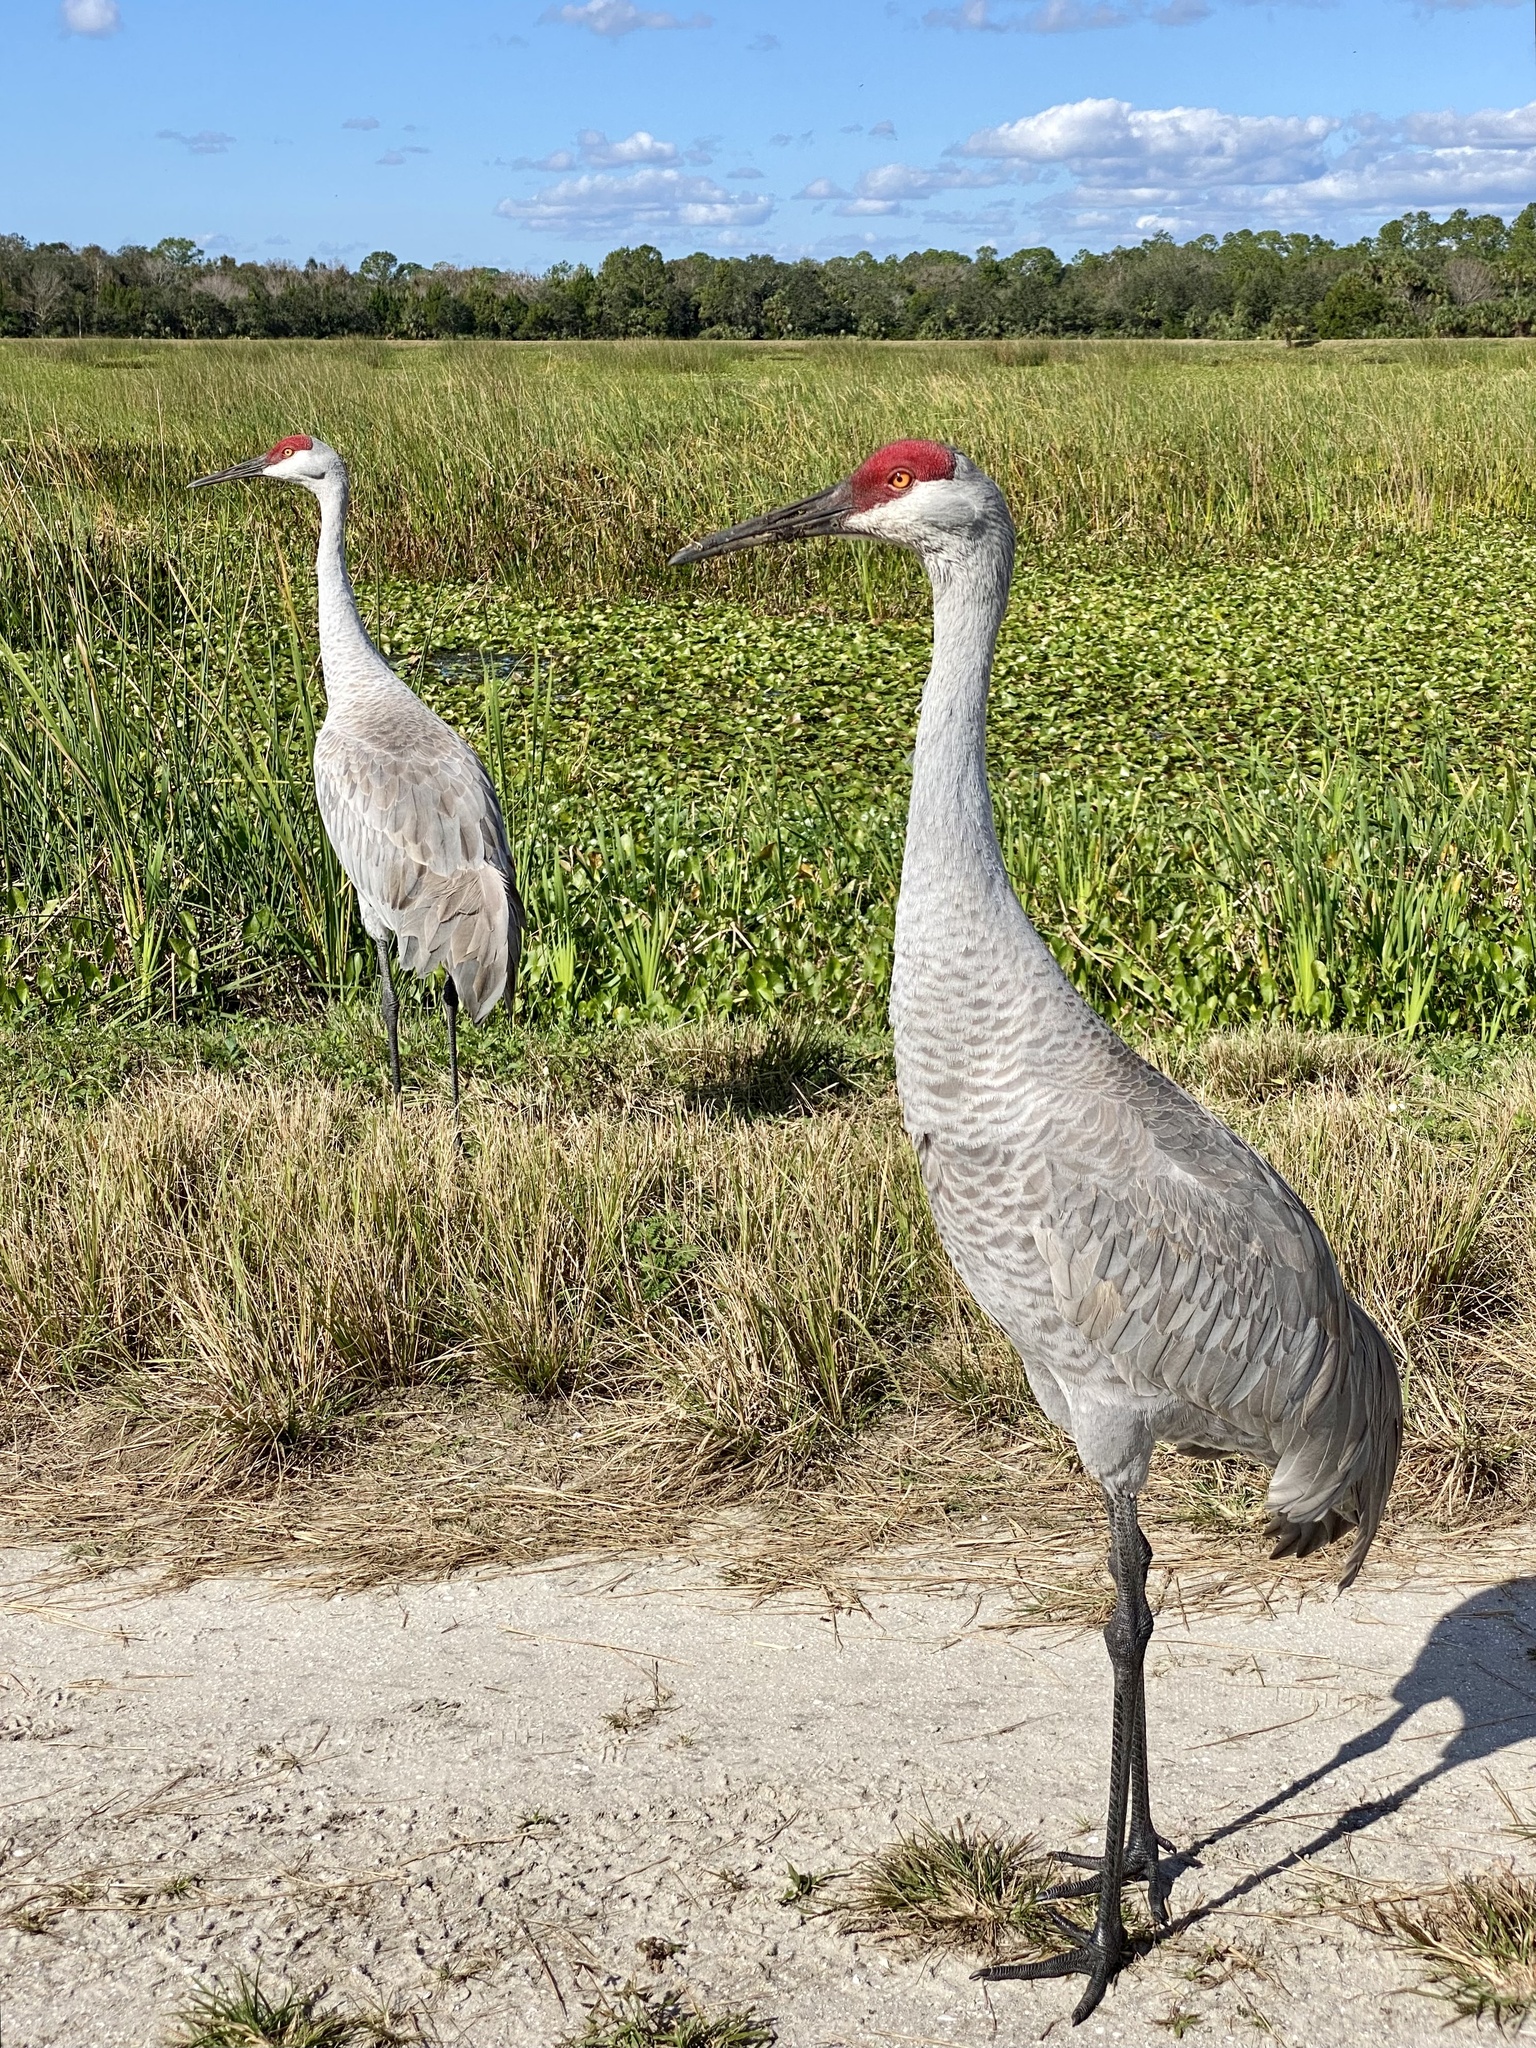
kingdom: Animalia
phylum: Chordata
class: Aves
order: Gruiformes
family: Gruidae
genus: Grus
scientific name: Grus canadensis
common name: Sandhill crane
